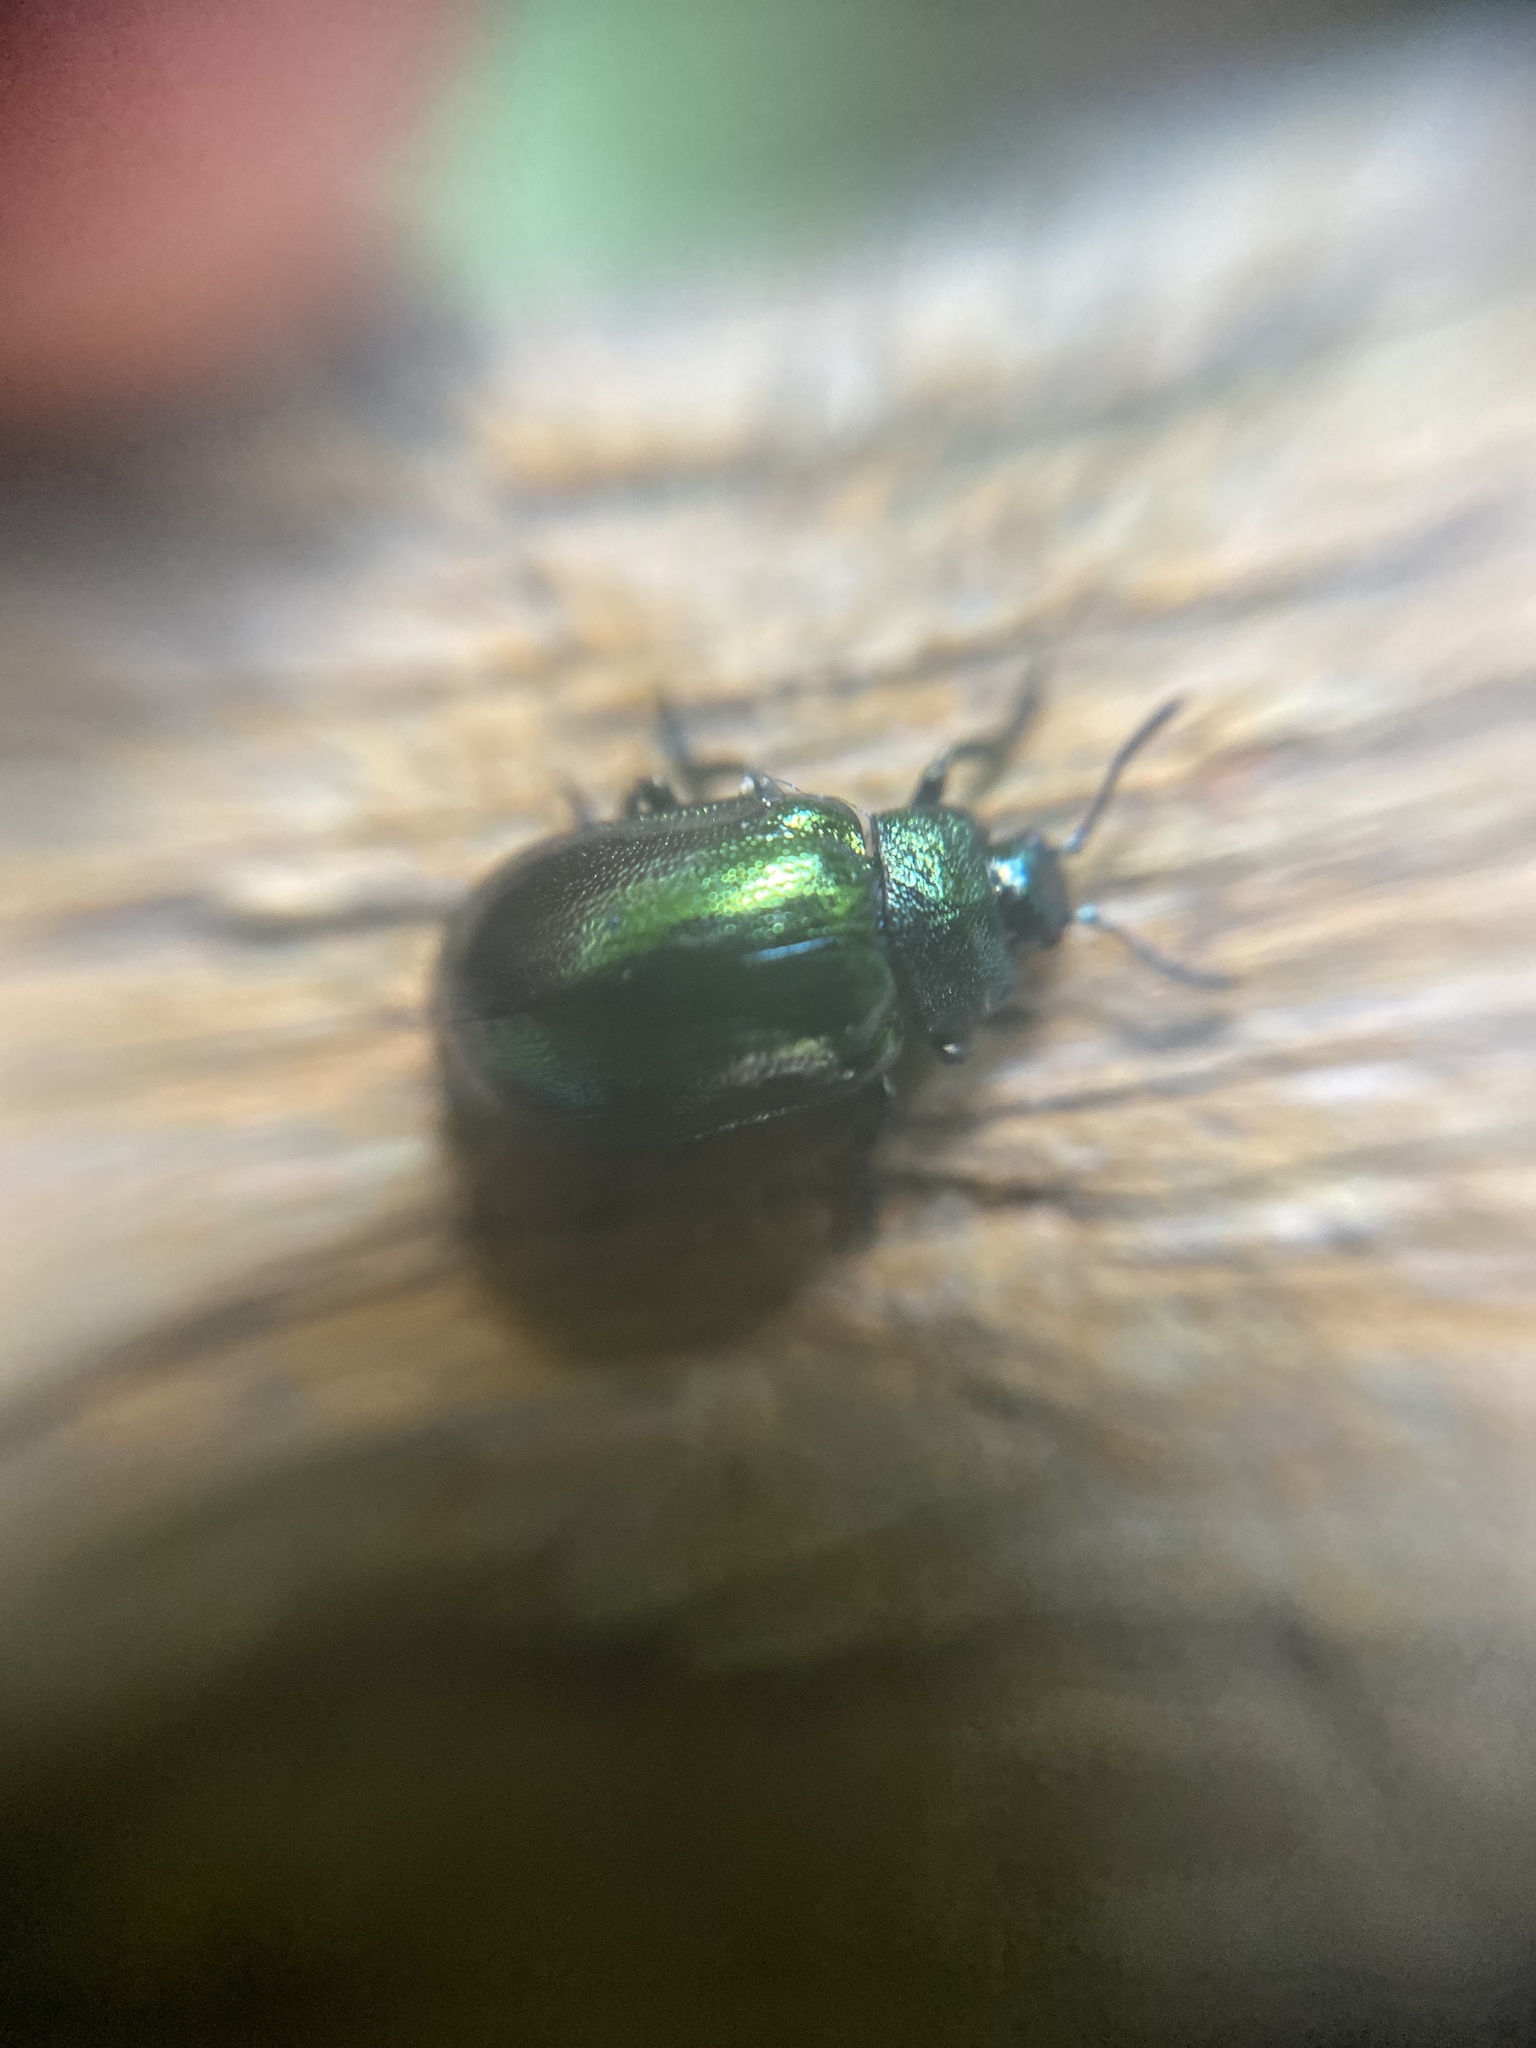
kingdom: Animalia
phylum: Arthropoda
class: Insecta
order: Coleoptera
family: Chrysomelidae
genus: Plagiosterna
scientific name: Plagiosterna aenea
